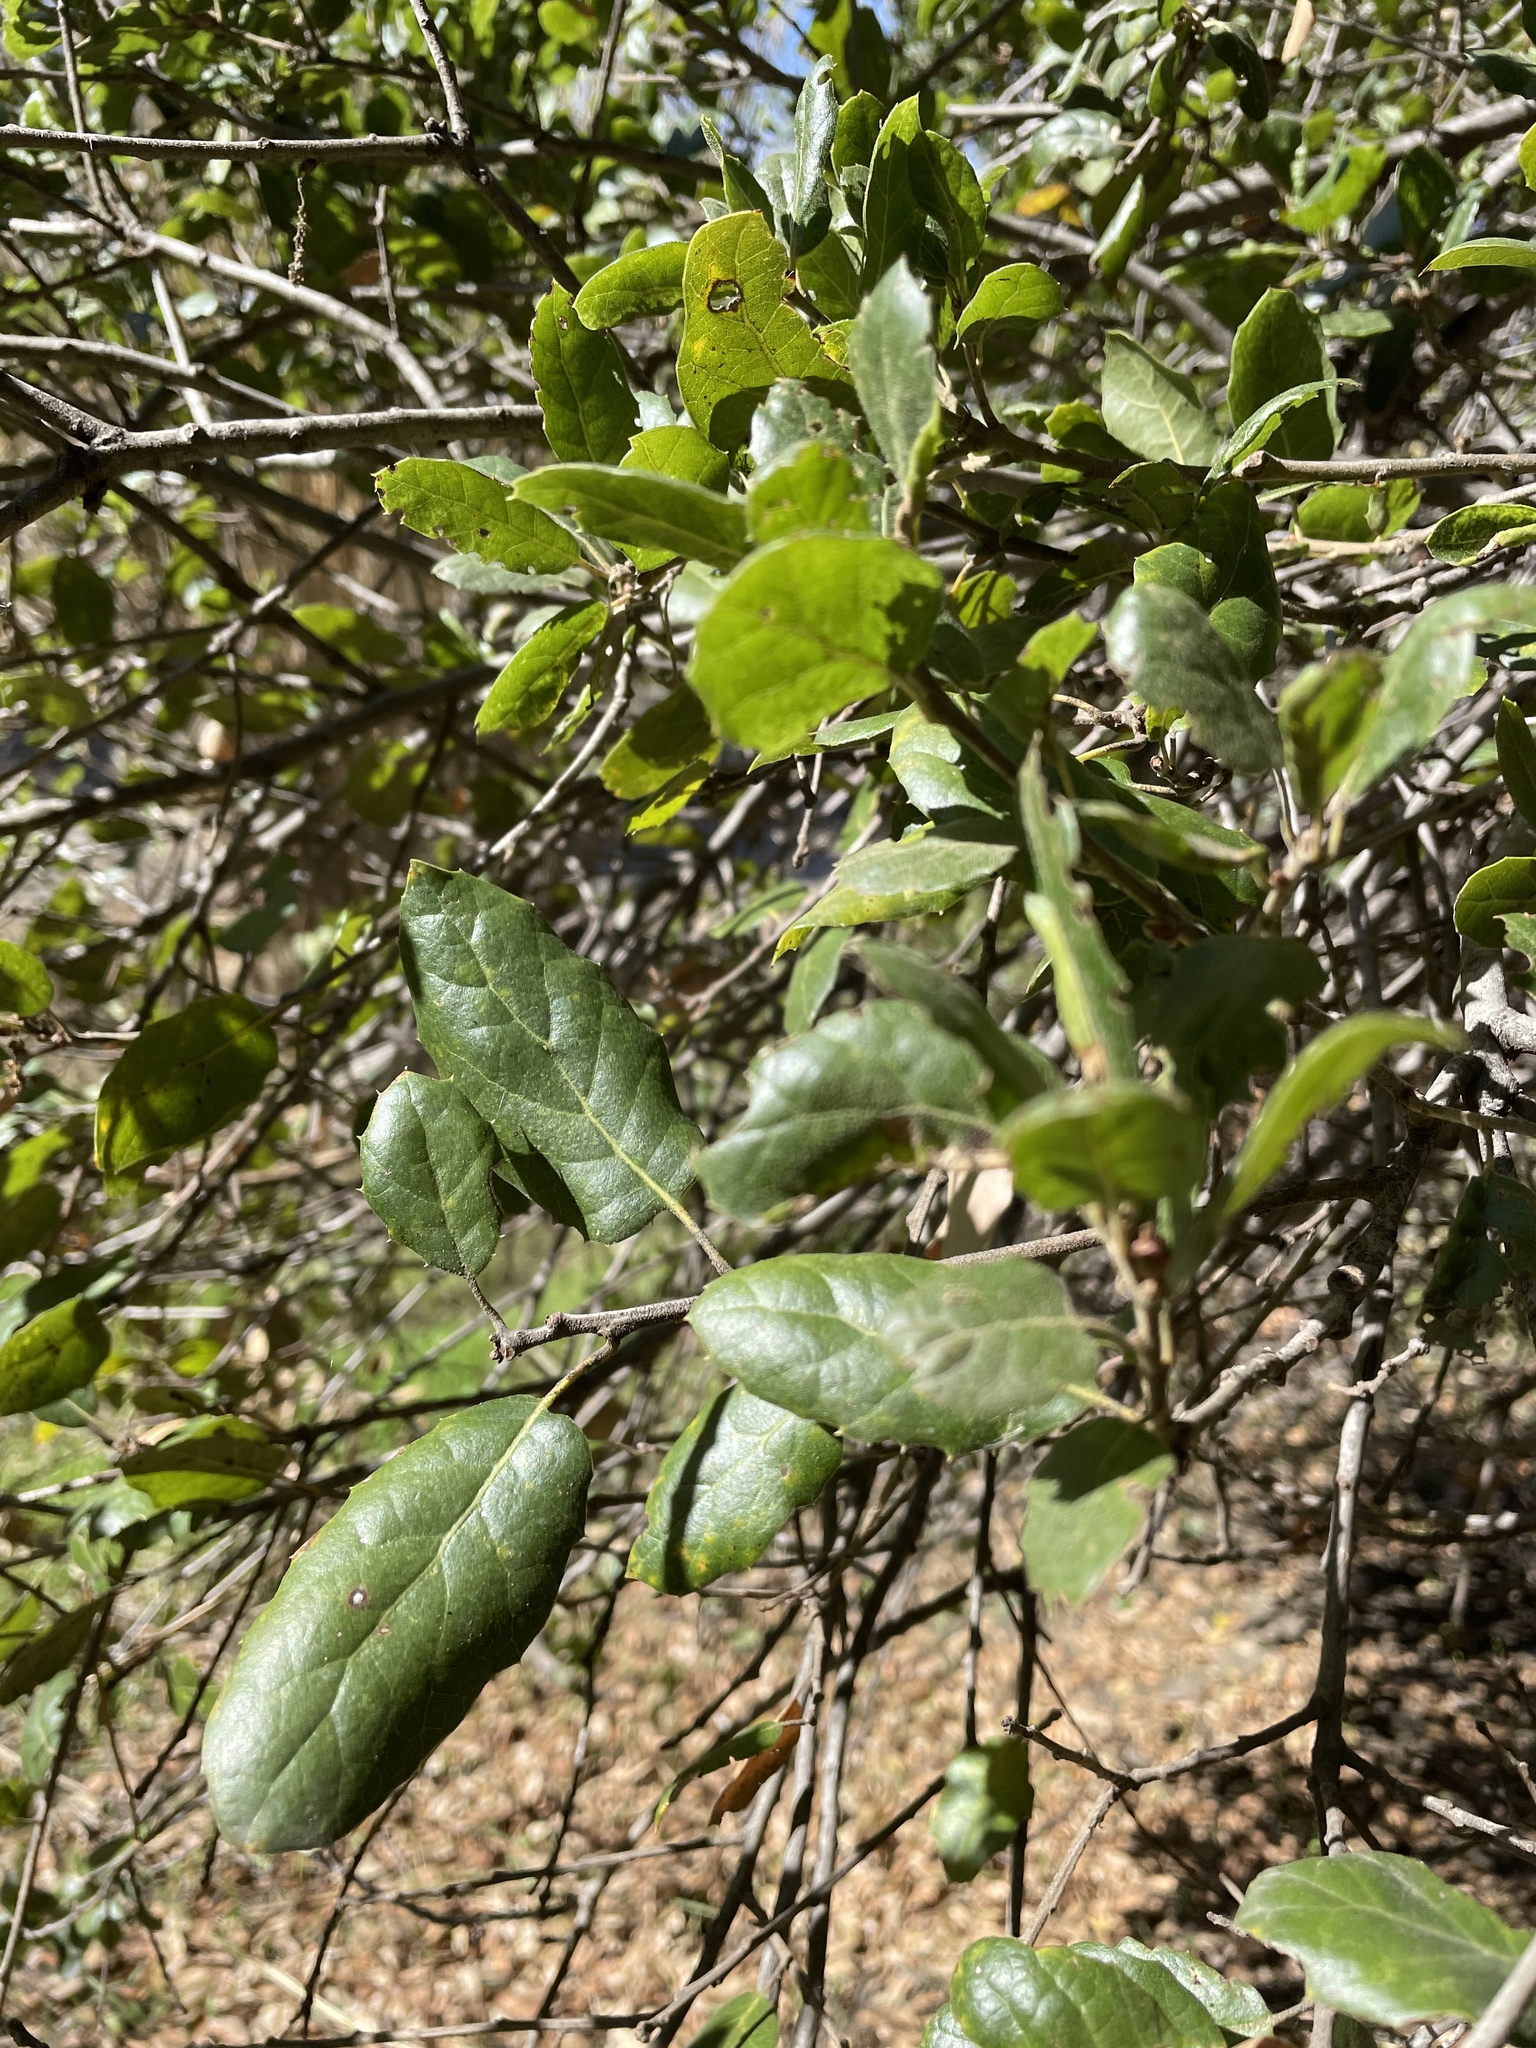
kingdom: Plantae
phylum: Tracheophyta
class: Magnoliopsida
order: Fagales
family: Fagaceae
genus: Quercus
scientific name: Quercus agrifolia
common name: California live oak
